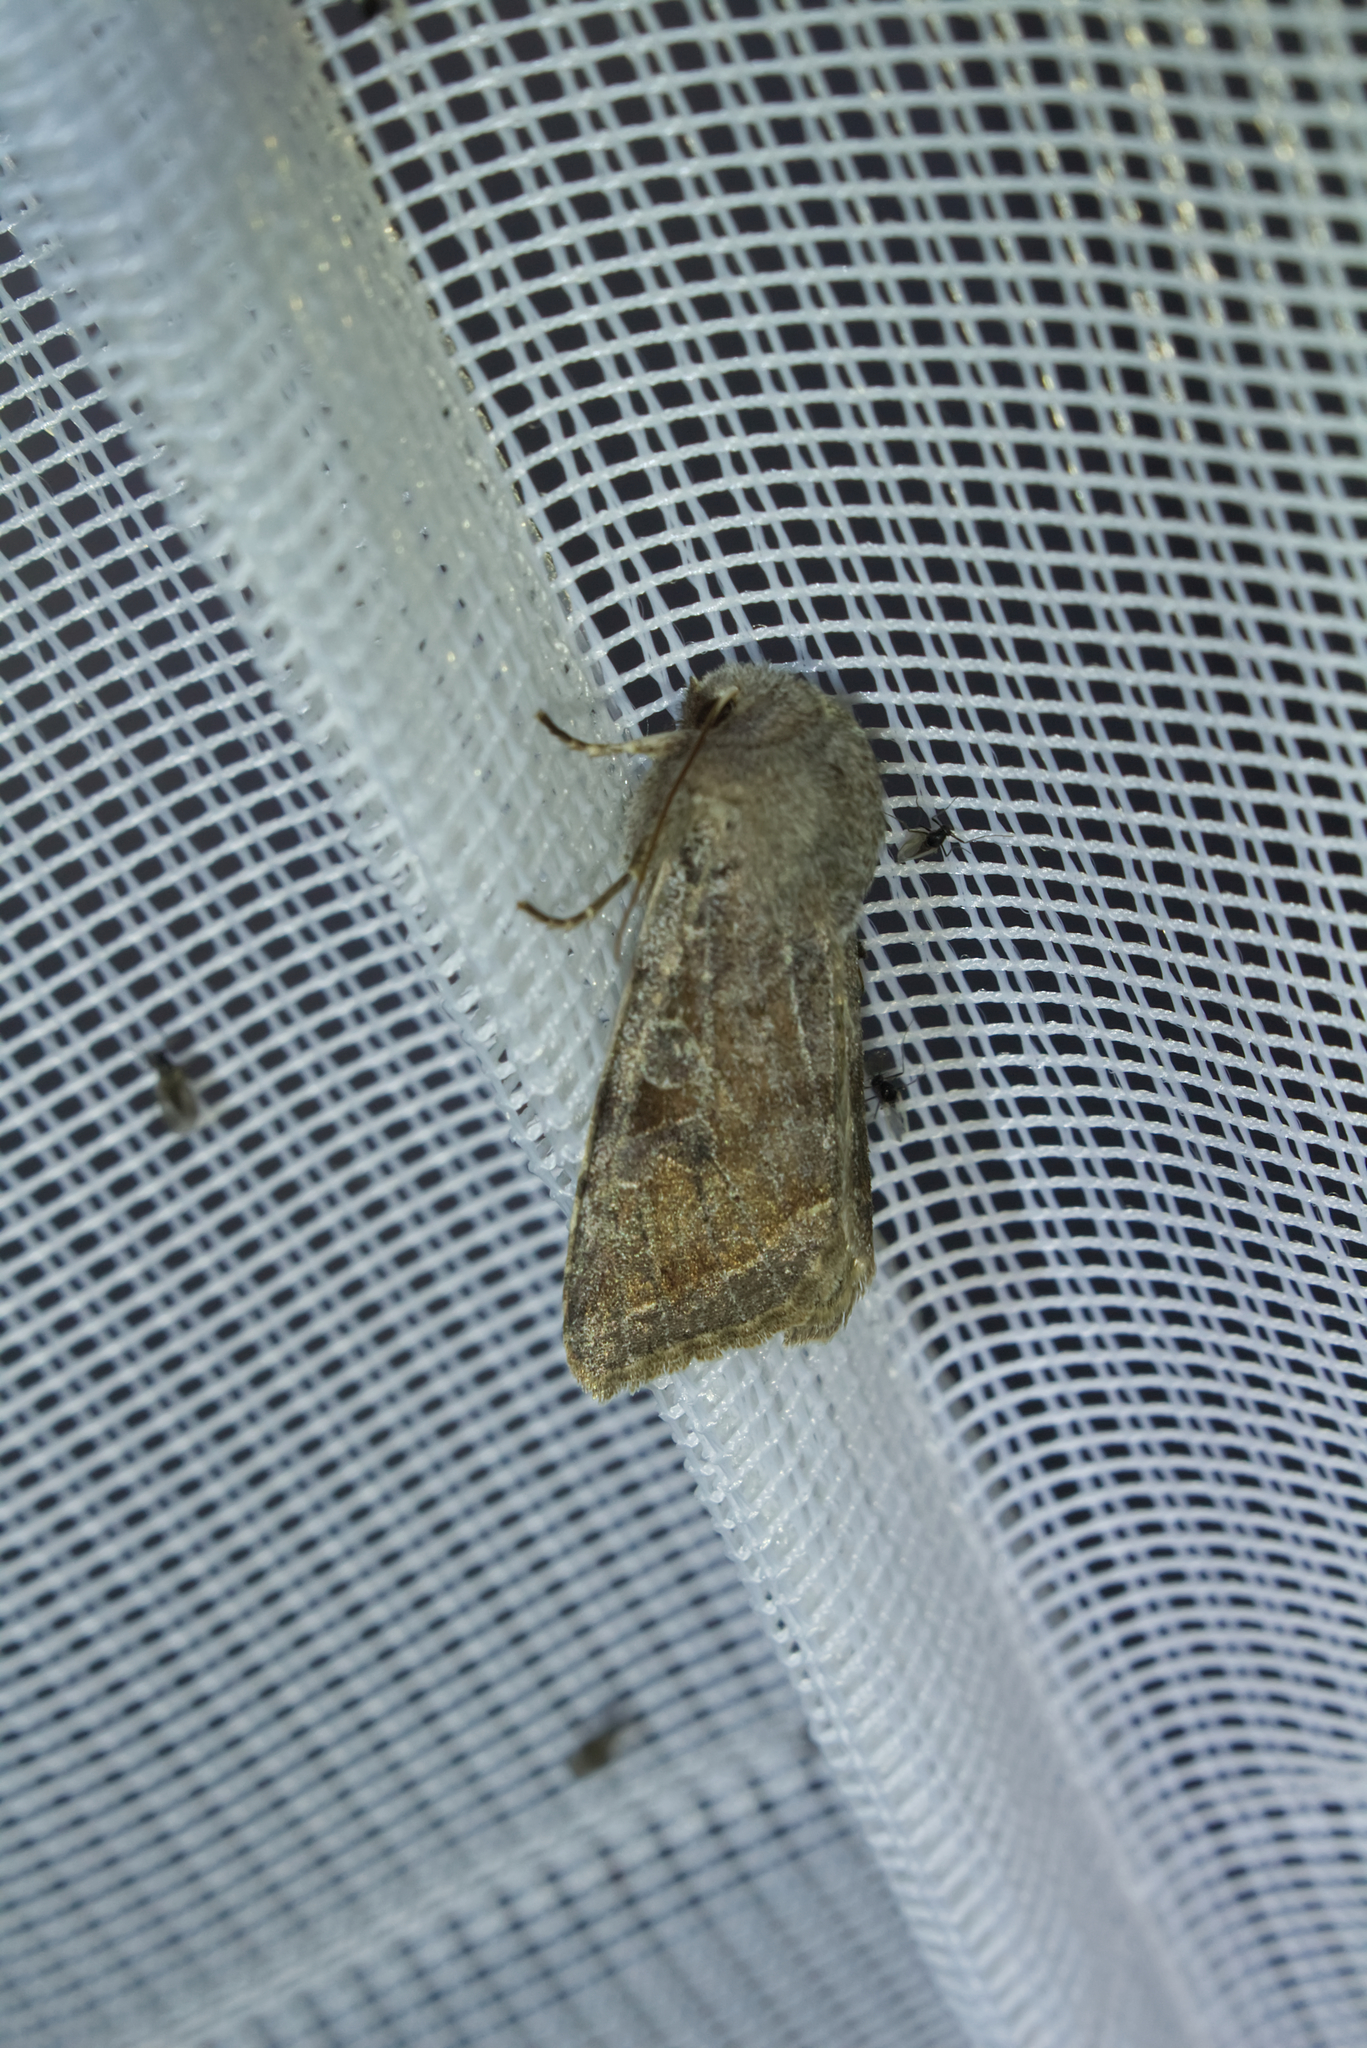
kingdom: Animalia
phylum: Arthropoda
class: Insecta
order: Lepidoptera
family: Noctuidae
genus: Orthosia
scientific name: Orthosia incerta
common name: Clouded drab
